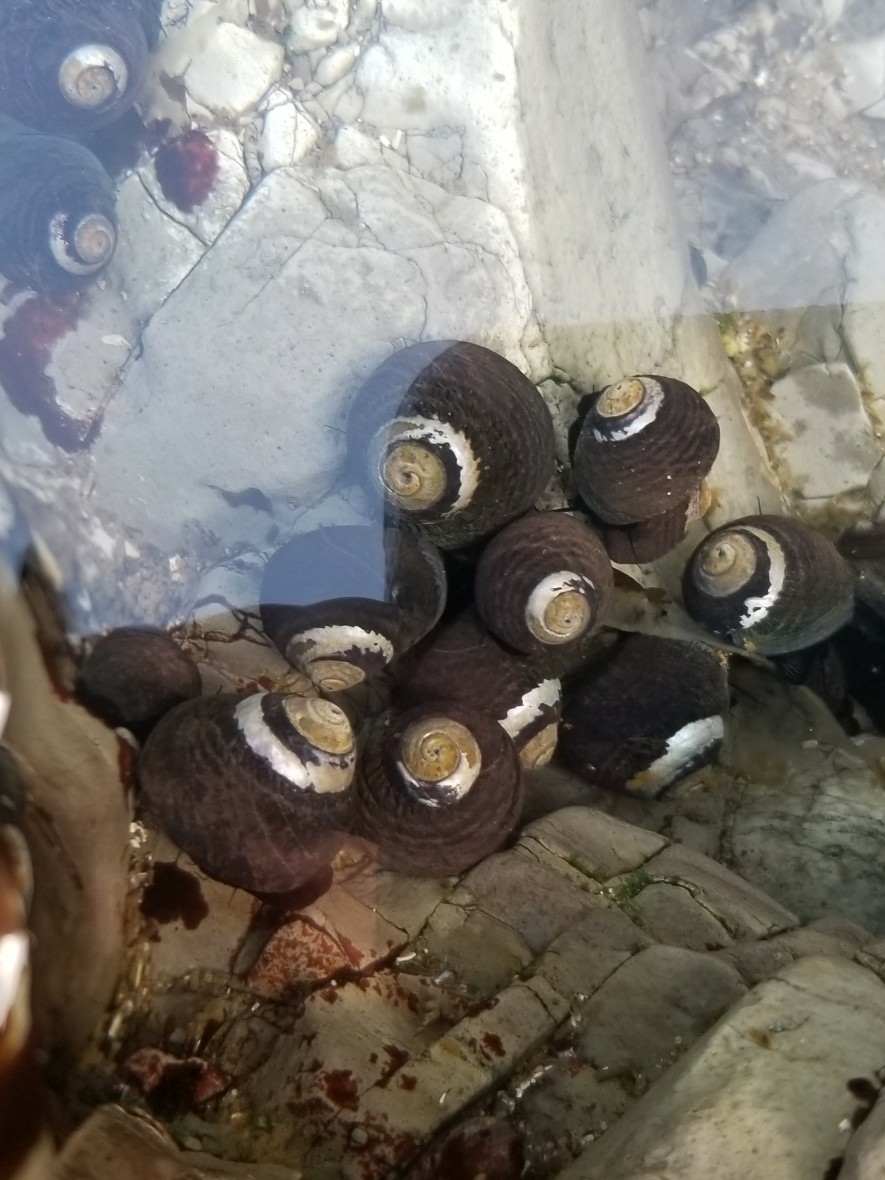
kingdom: Animalia
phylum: Mollusca
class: Gastropoda
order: Trochida
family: Tegulidae
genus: Tegula
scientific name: Tegula funebralis
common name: Black tegula
